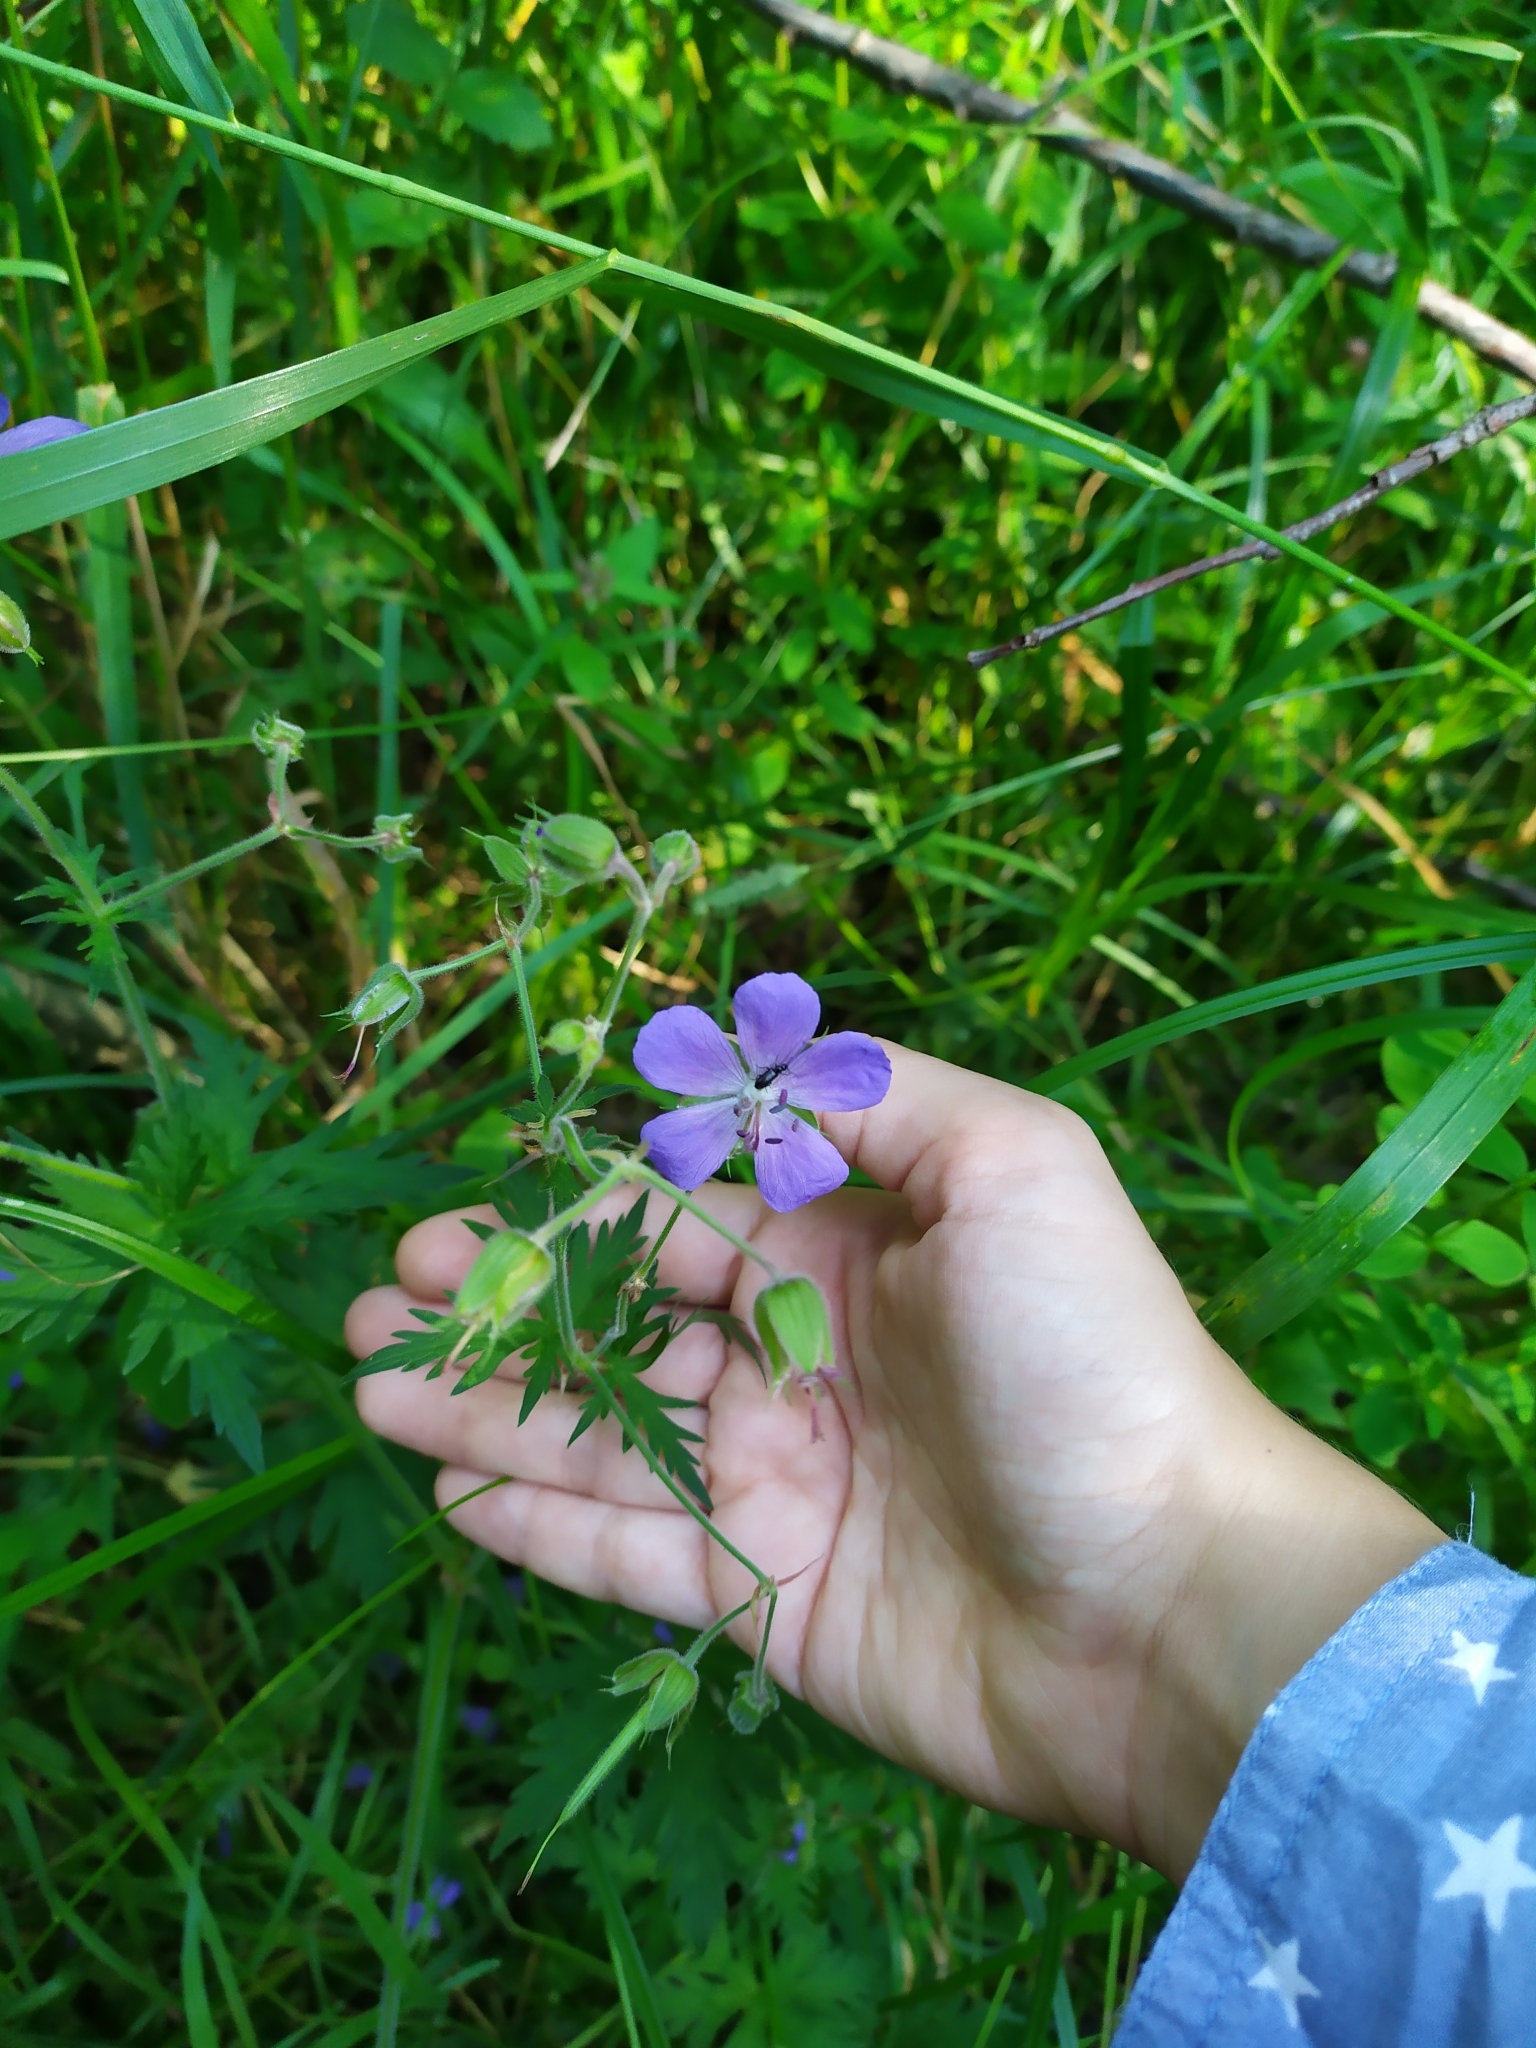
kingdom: Plantae
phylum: Tracheophyta
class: Magnoliopsida
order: Geraniales
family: Geraniaceae
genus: Geranium
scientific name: Geranium pratense
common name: Meadow crane's-bill
